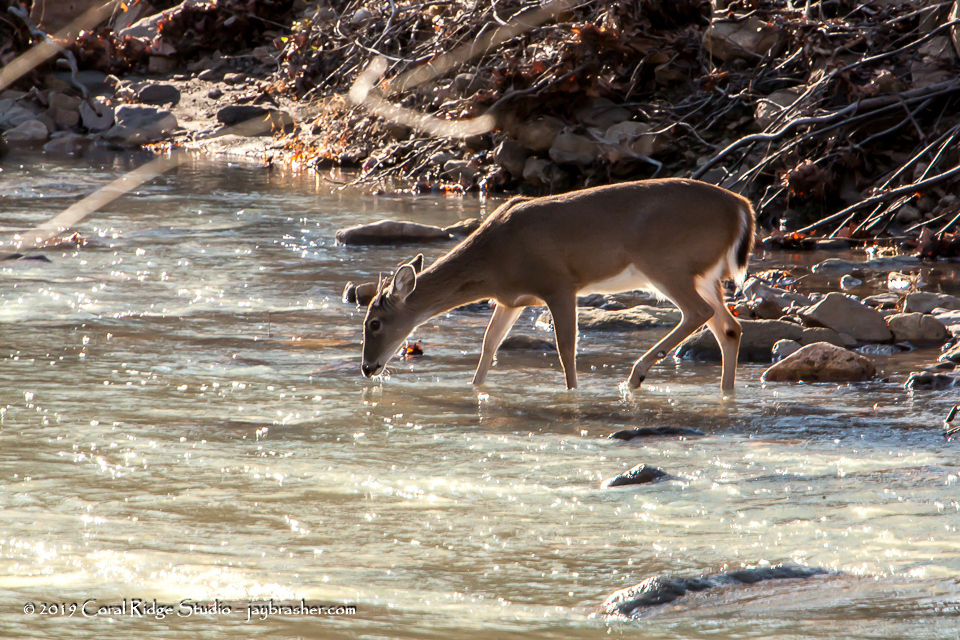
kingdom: Animalia
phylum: Chordata
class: Mammalia
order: Artiodactyla
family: Cervidae
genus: Odocoileus
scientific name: Odocoileus virginianus
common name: White-tailed deer
